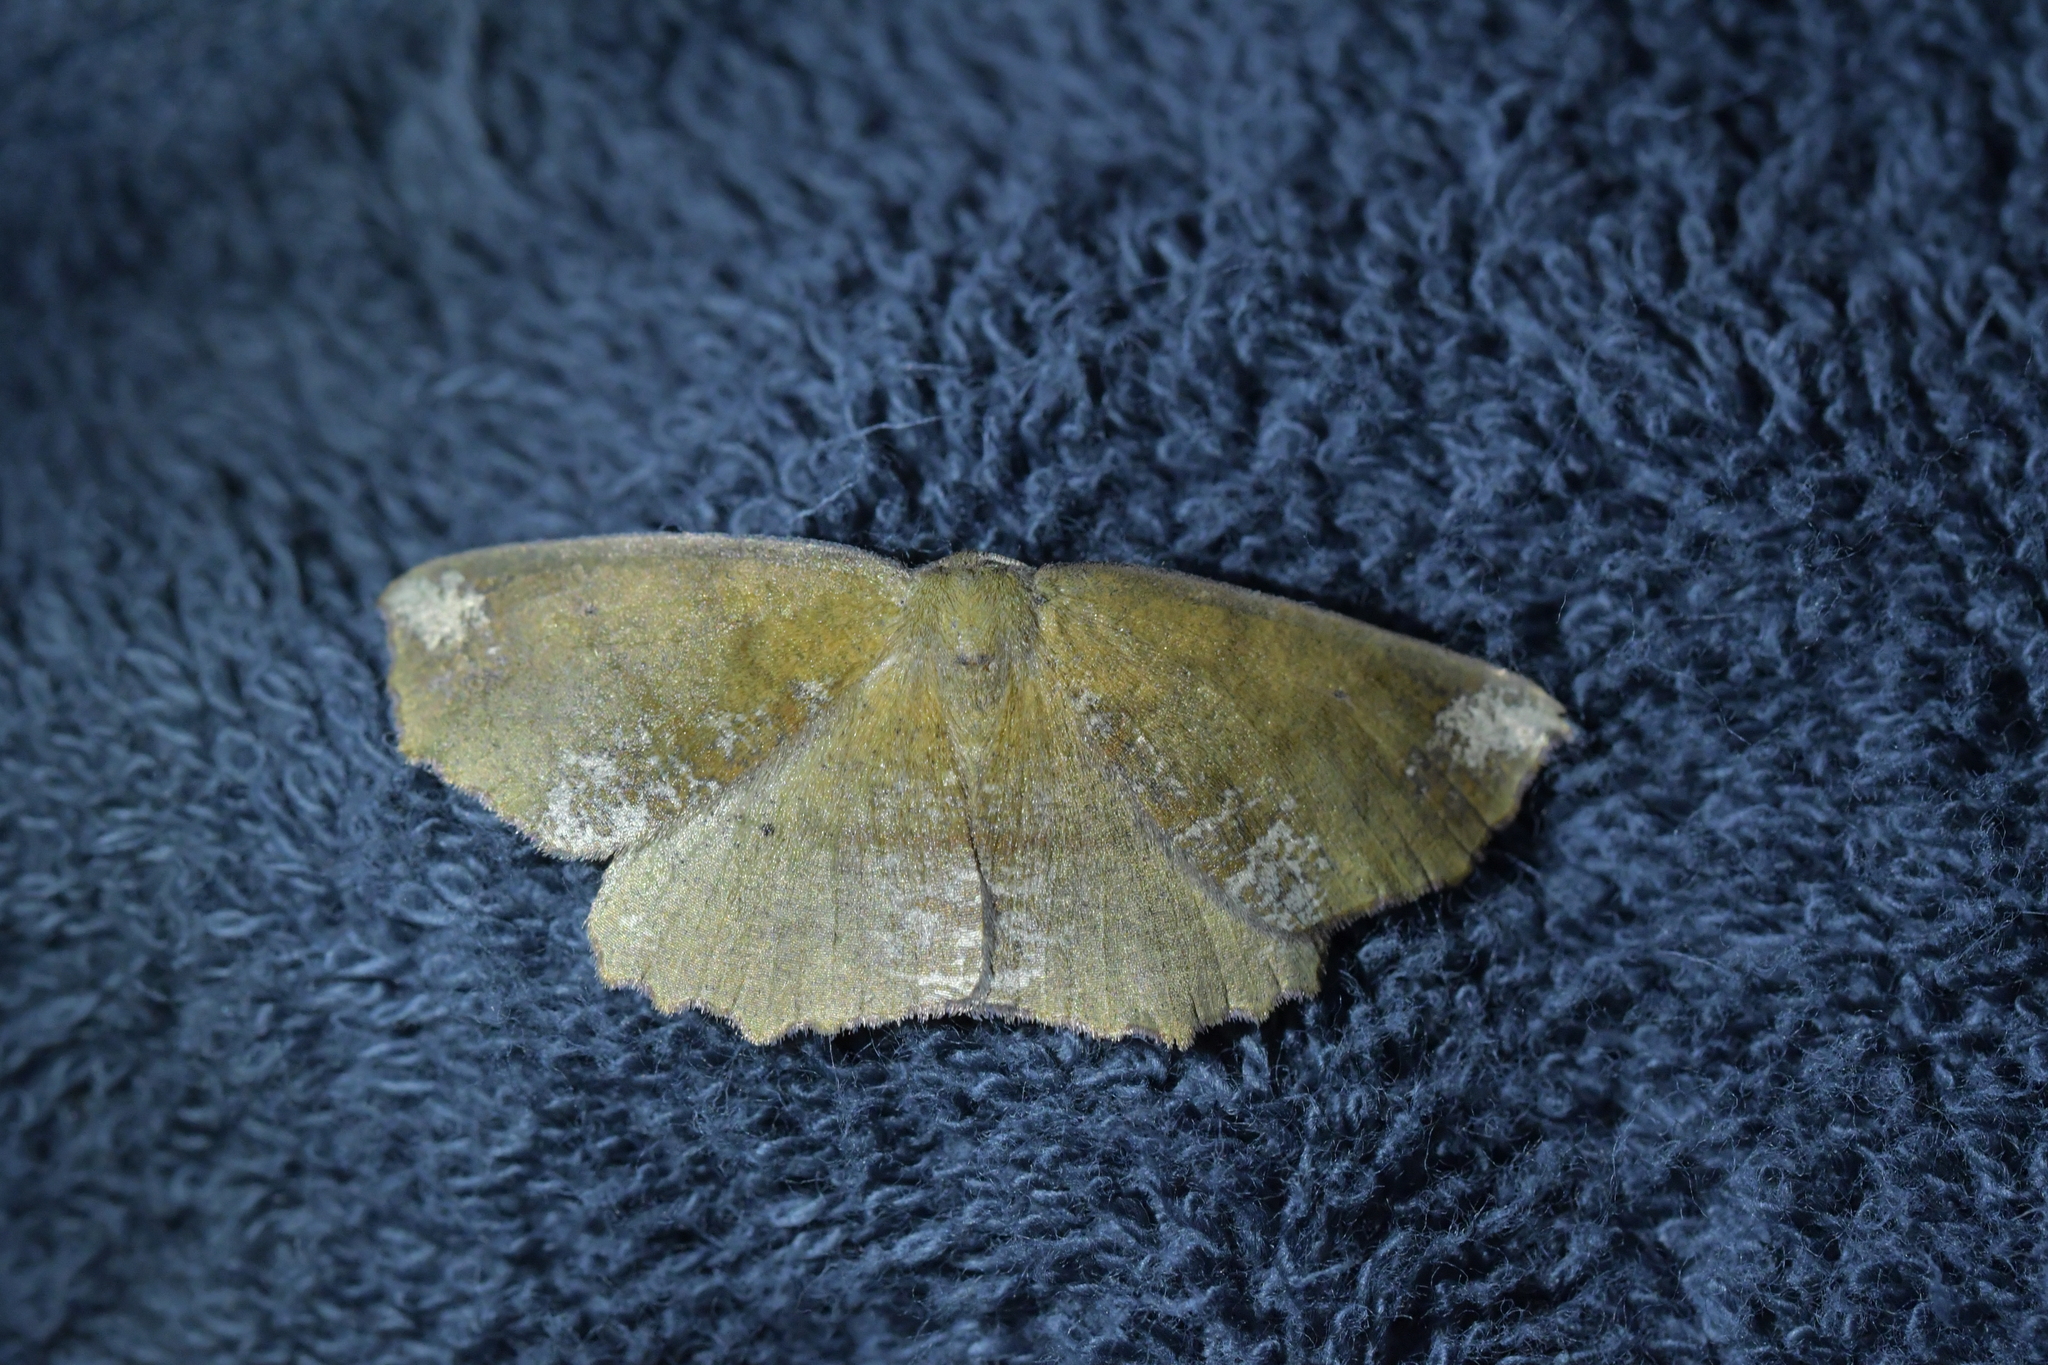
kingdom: Animalia
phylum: Arthropoda
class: Insecta
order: Lepidoptera
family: Geometridae
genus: Xyridacma
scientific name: Xyridacma ustaria
